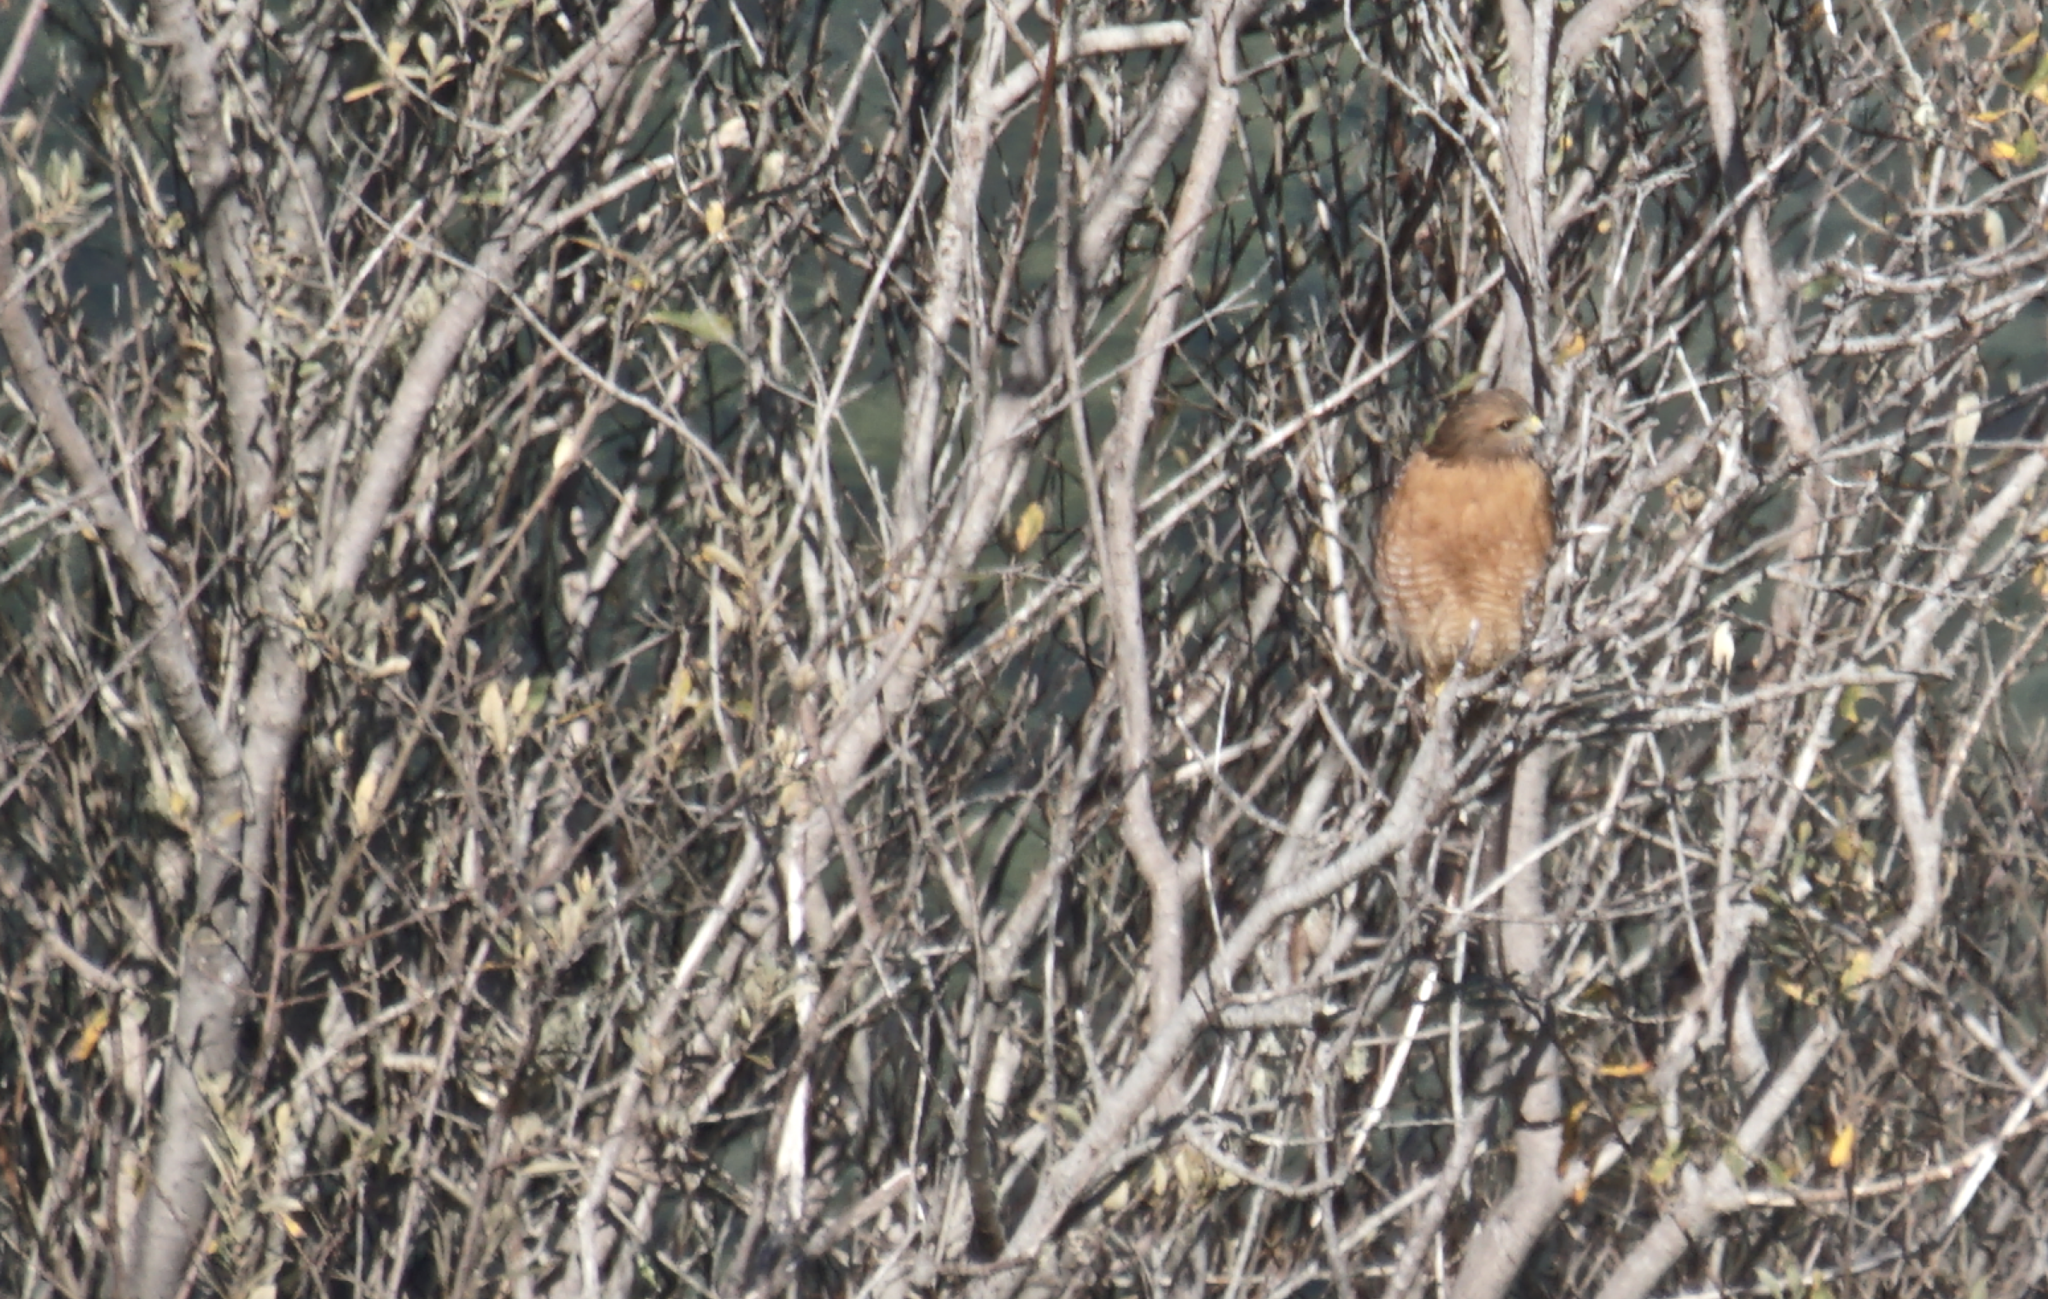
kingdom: Animalia
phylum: Chordata
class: Aves
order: Accipitriformes
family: Accipitridae
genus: Buteo
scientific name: Buteo lineatus
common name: Red-shouldered hawk
